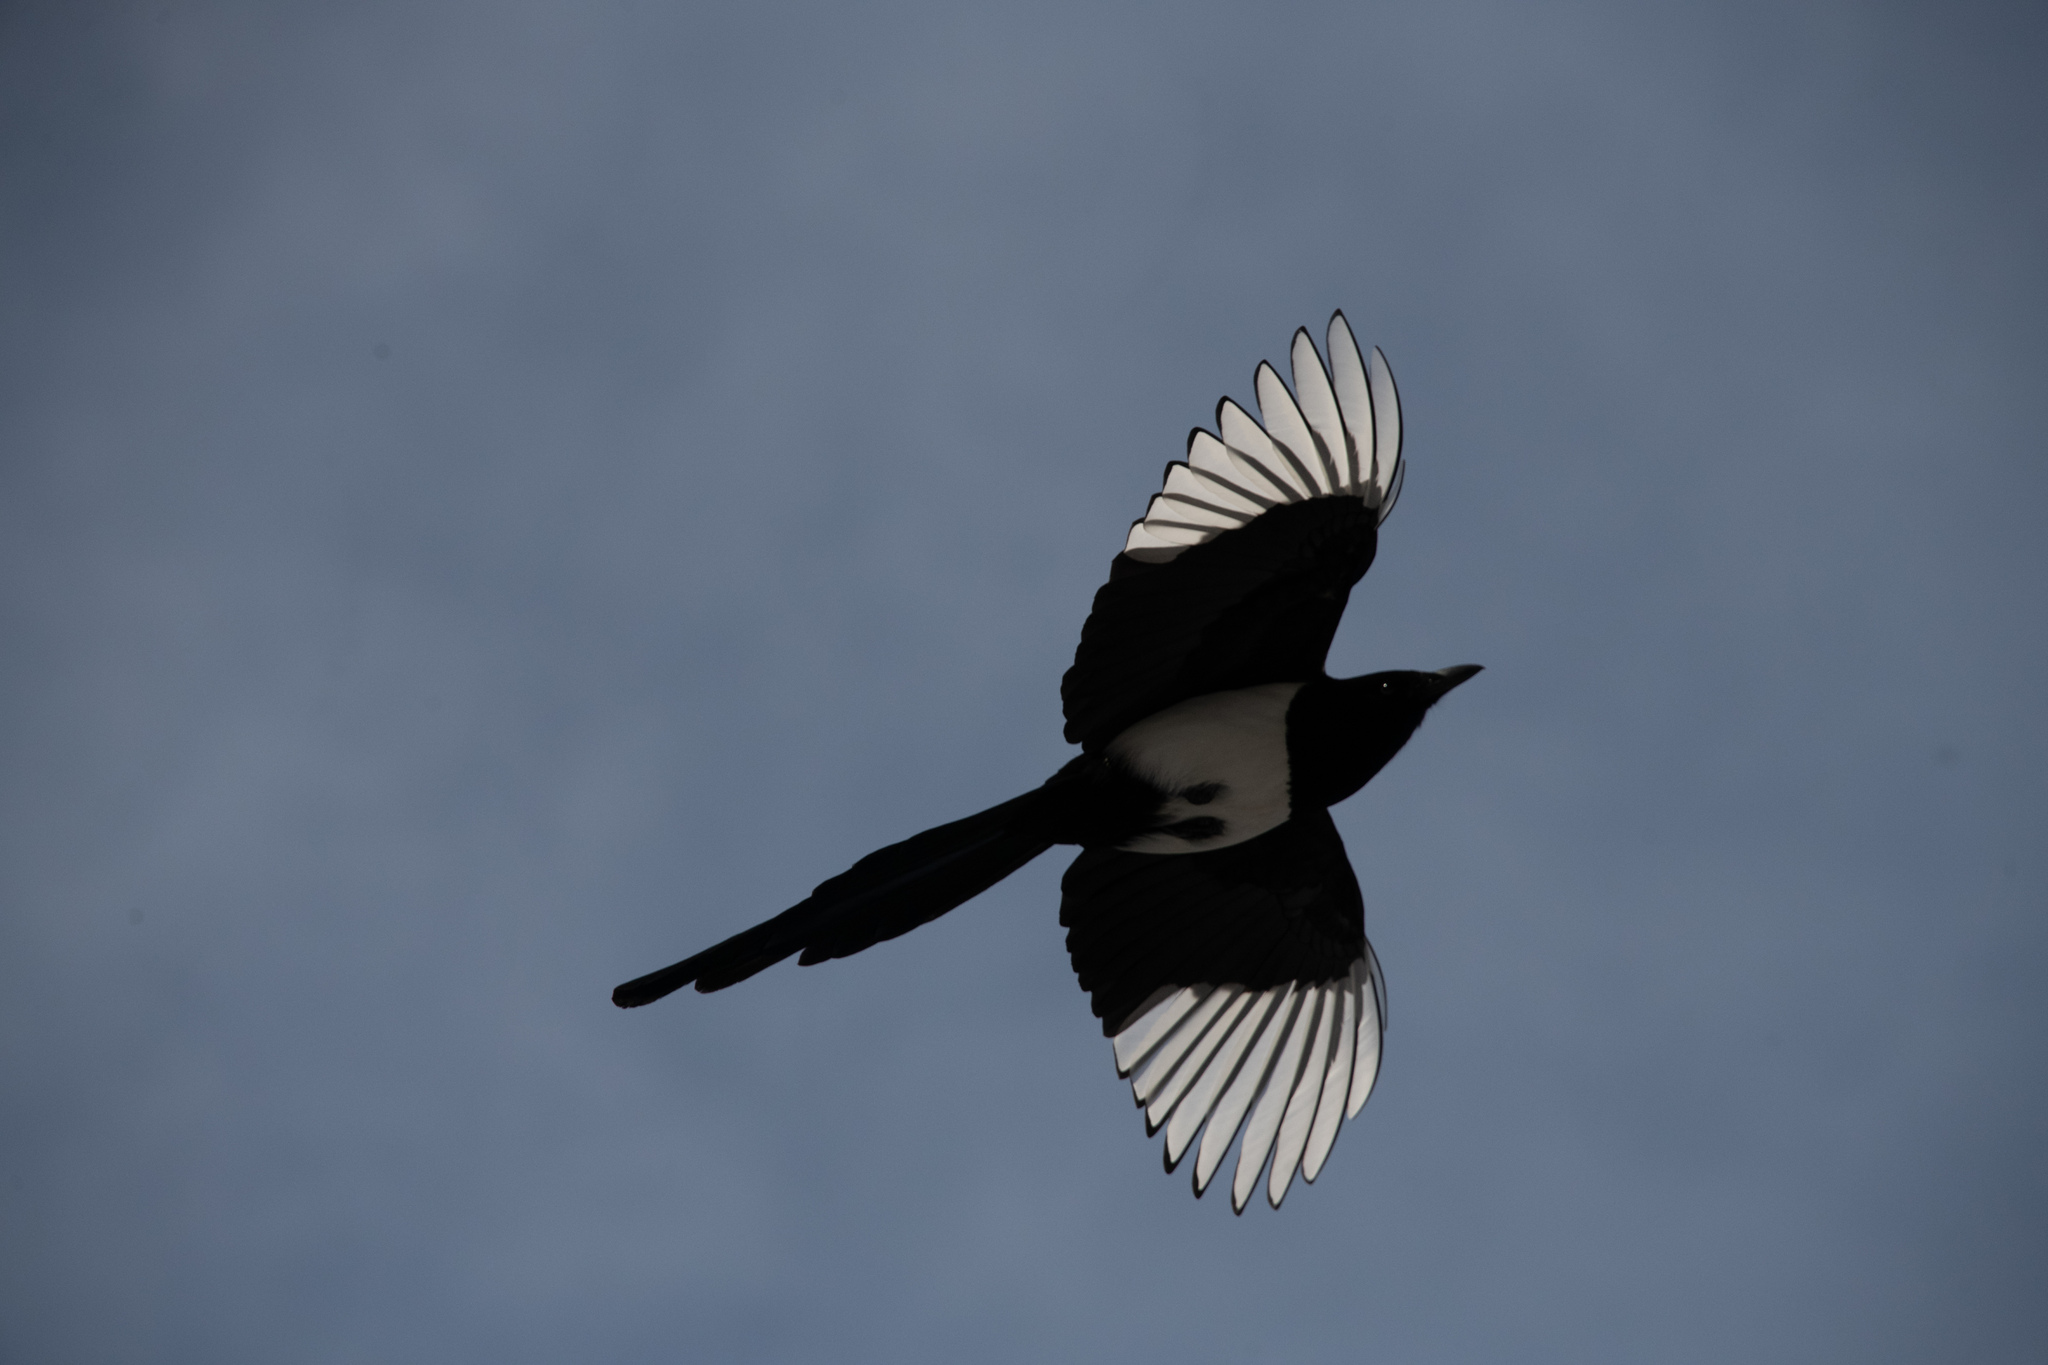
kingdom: Animalia
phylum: Chordata
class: Aves
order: Passeriformes
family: Corvidae
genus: Pica
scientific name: Pica pica
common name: Eurasian magpie
